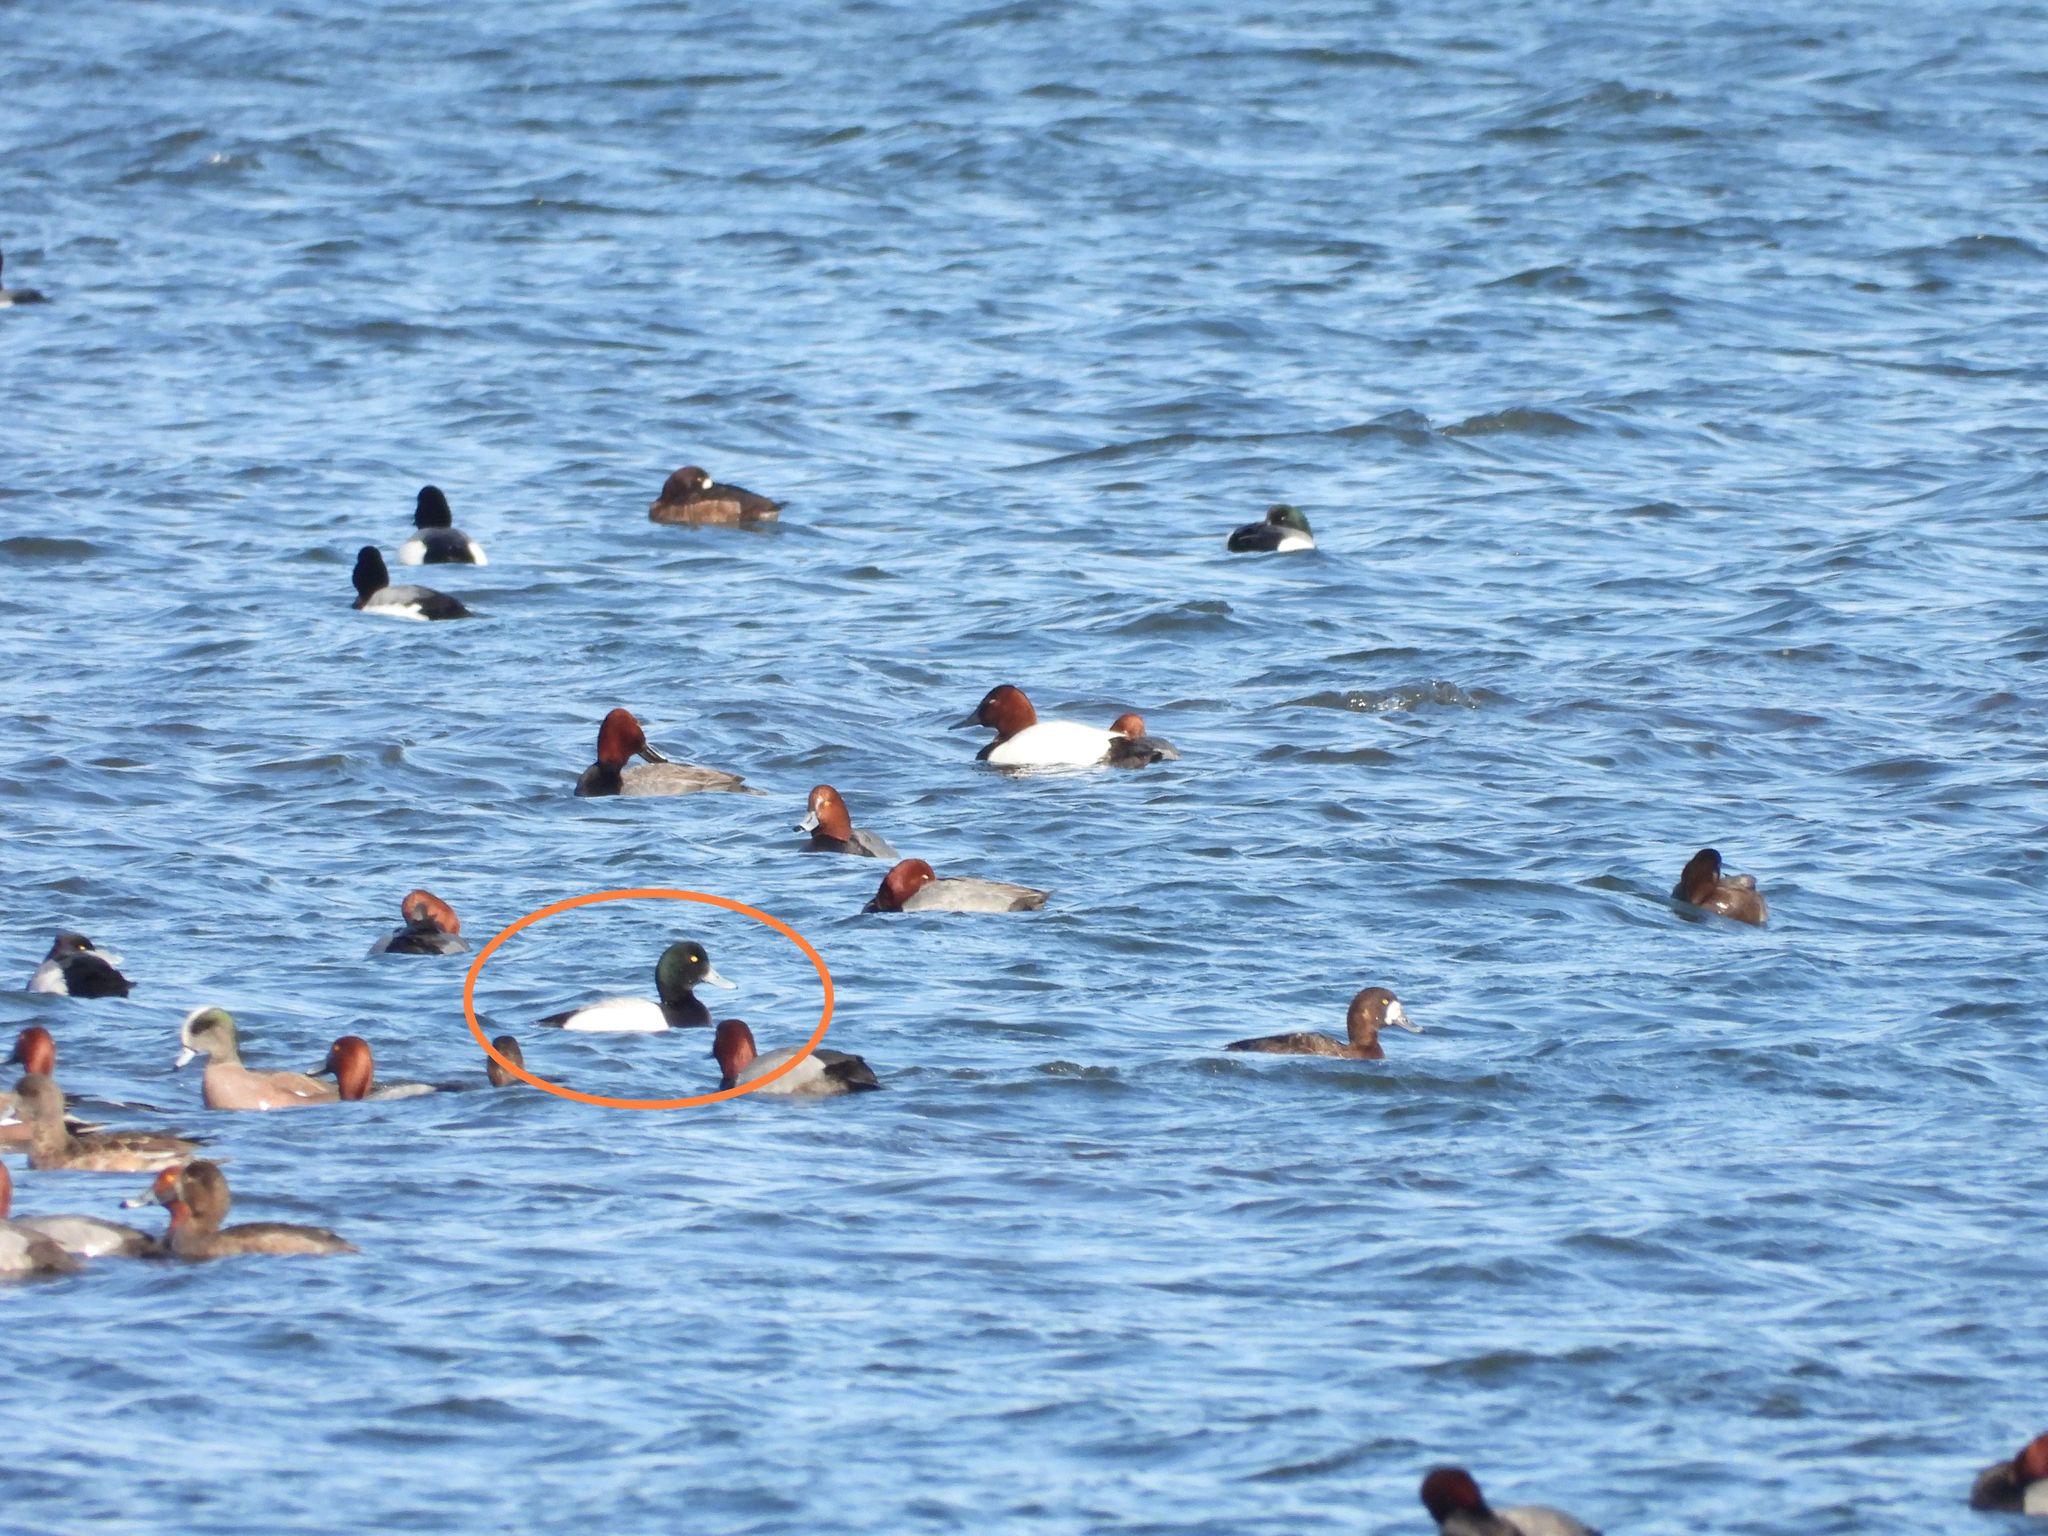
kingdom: Animalia
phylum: Chordata
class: Aves
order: Anseriformes
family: Anatidae
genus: Aythya
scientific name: Aythya marila
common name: Greater scaup
